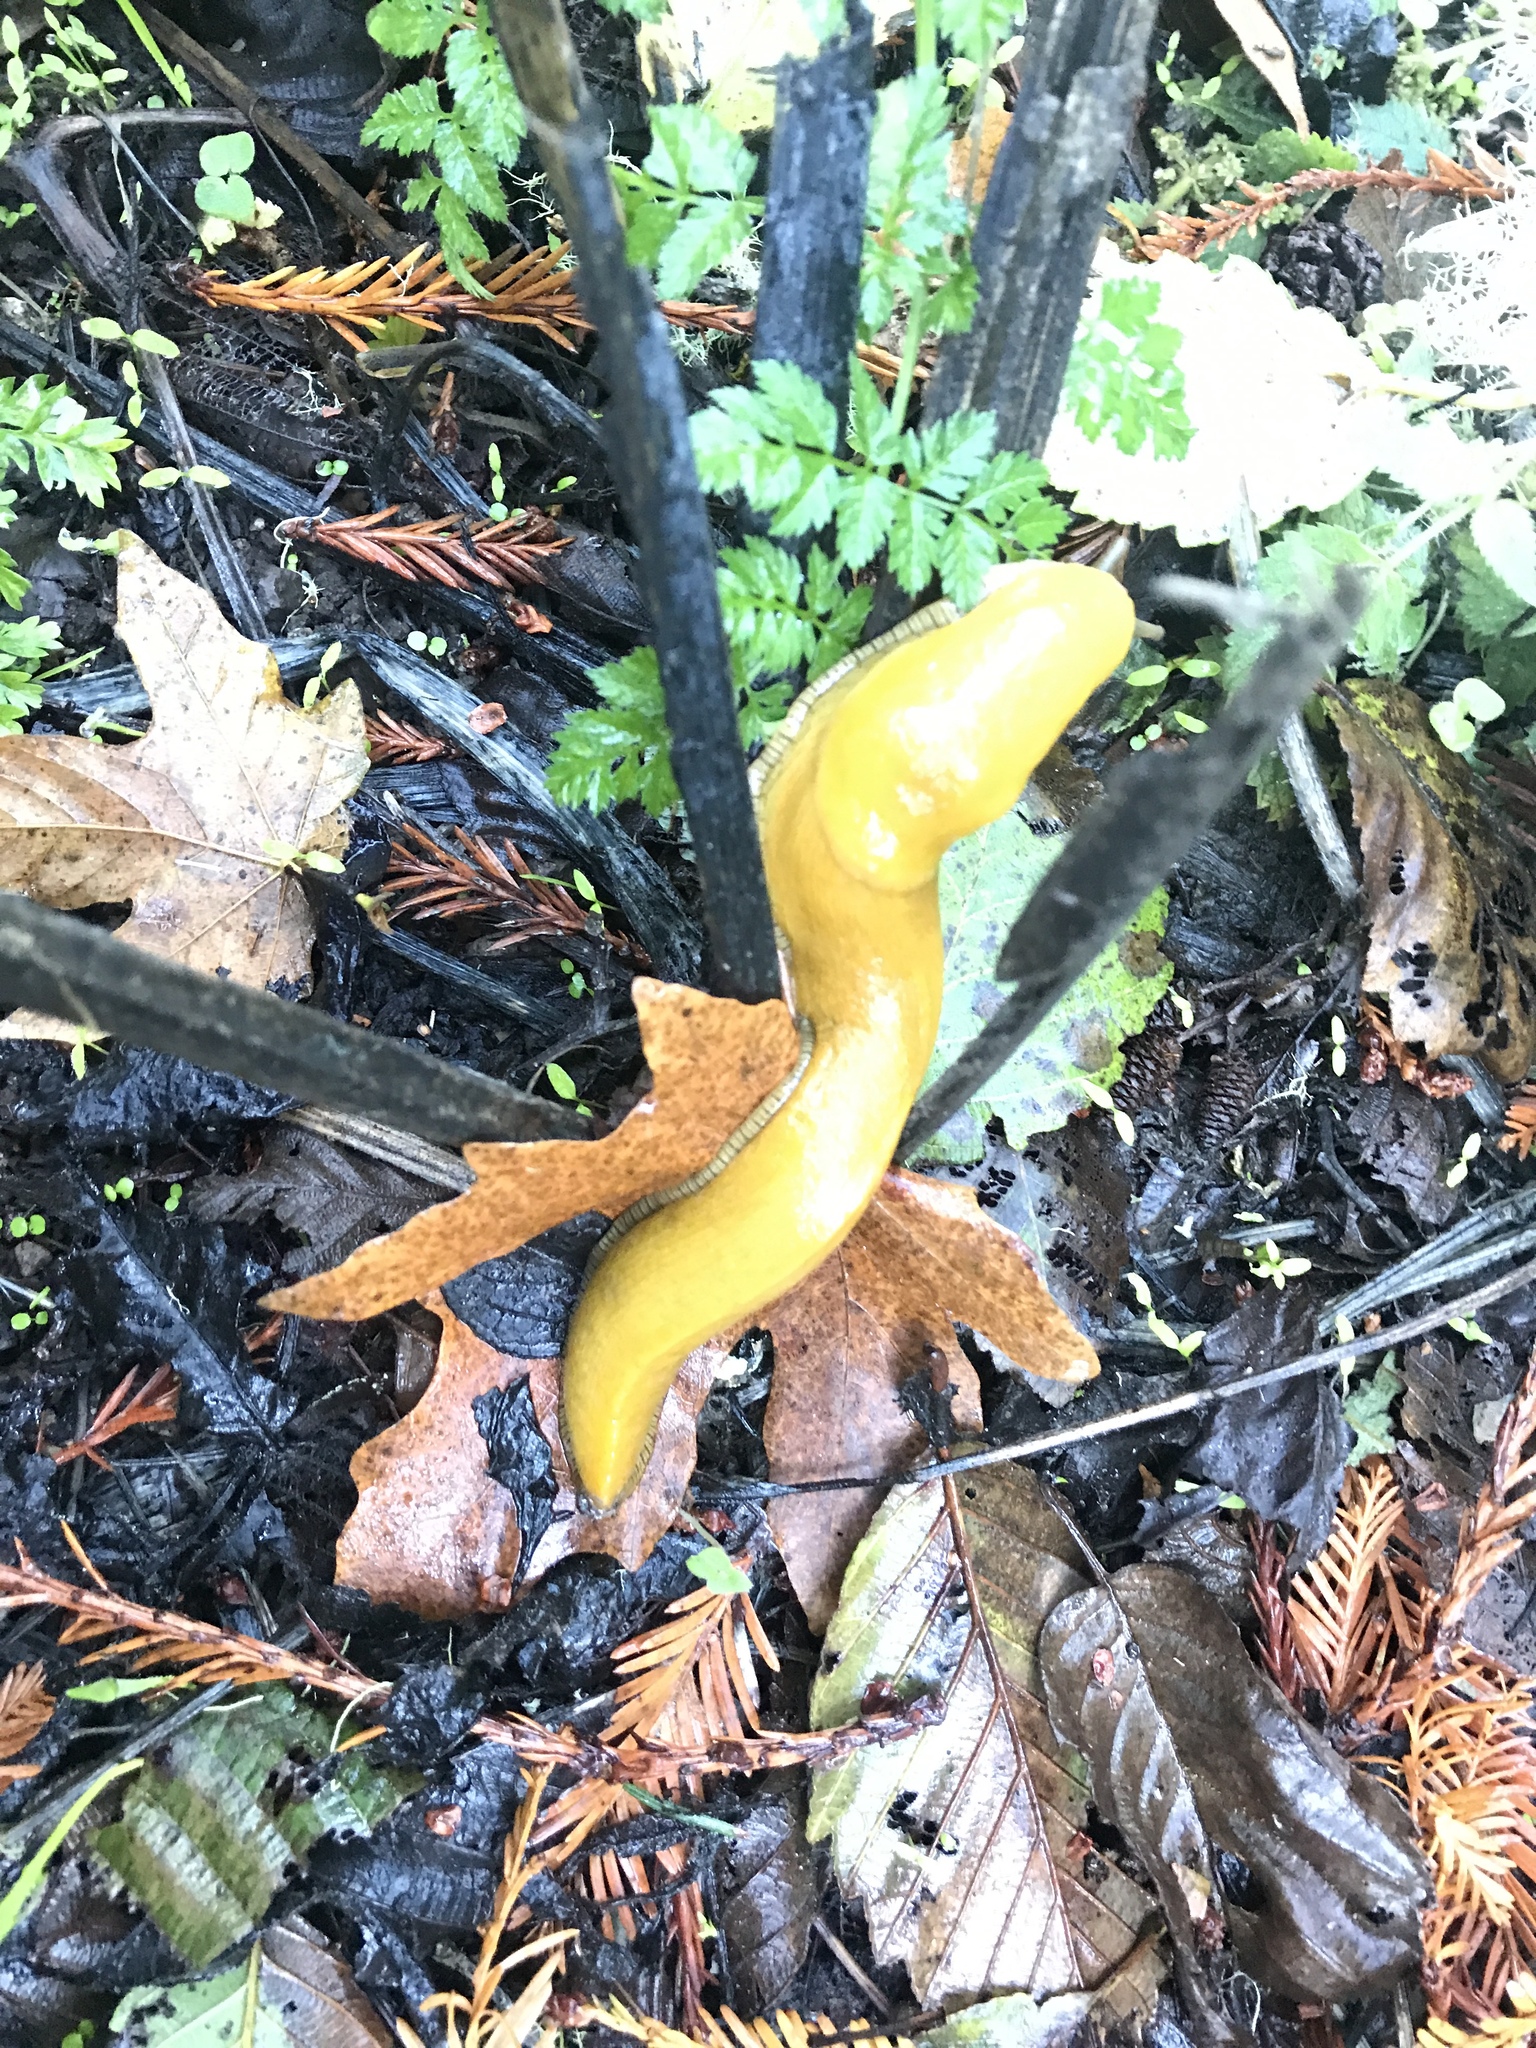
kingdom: Animalia
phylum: Mollusca
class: Gastropoda
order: Stylommatophora
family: Ariolimacidae
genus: Ariolimax
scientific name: Ariolimax californicus
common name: California banana slug
